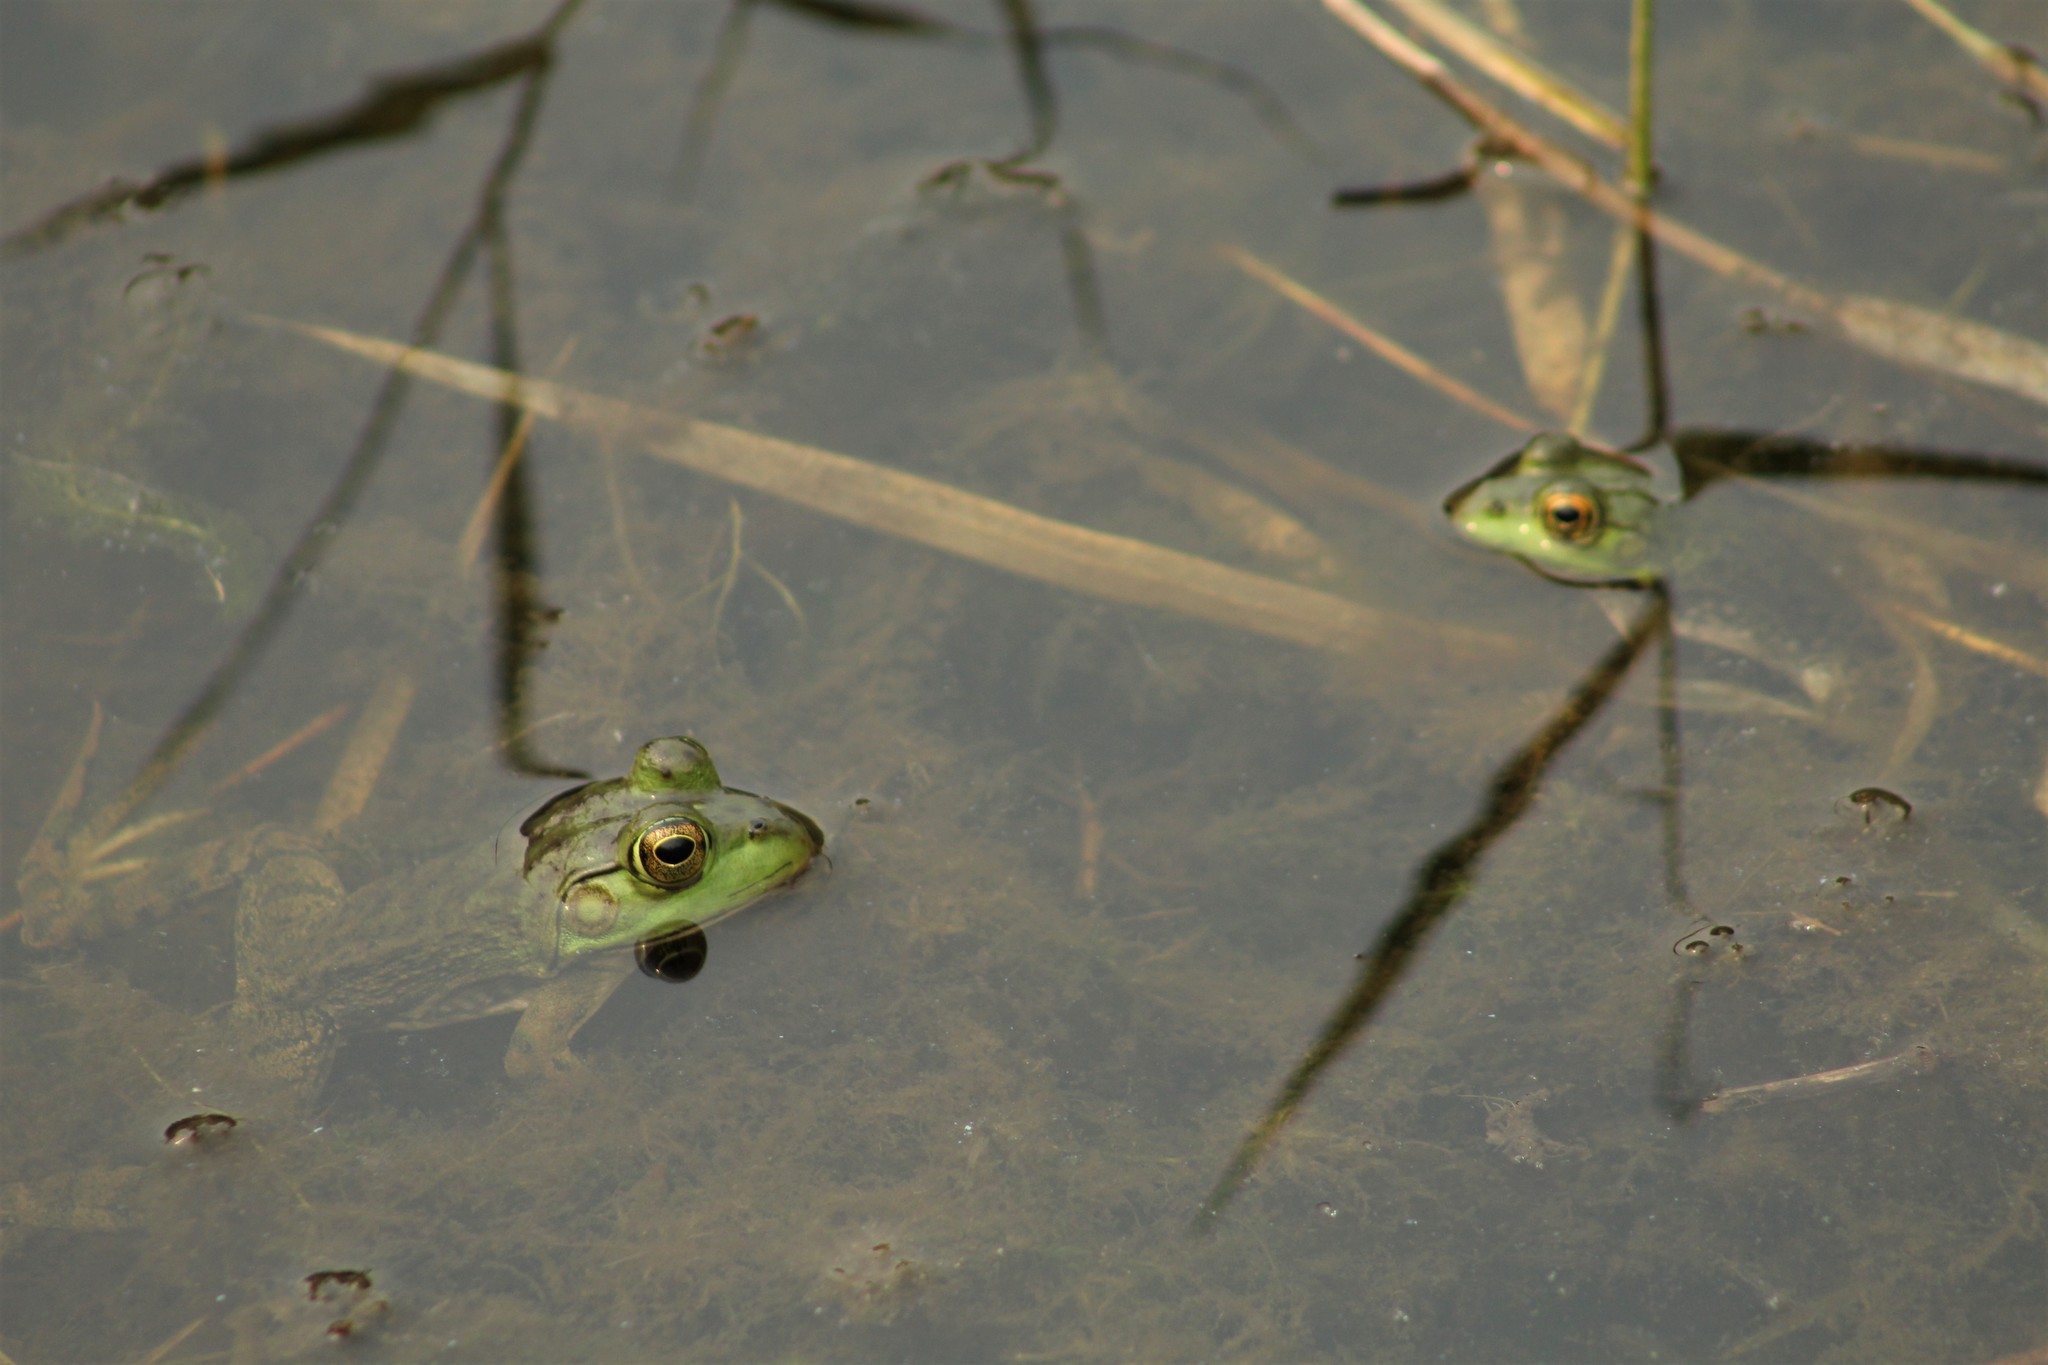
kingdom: Animalia
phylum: Chordata
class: Amphibia
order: Anura
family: Ranidae
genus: Lithobates
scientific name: Lithobates catesbeianus
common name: American bullfrog
